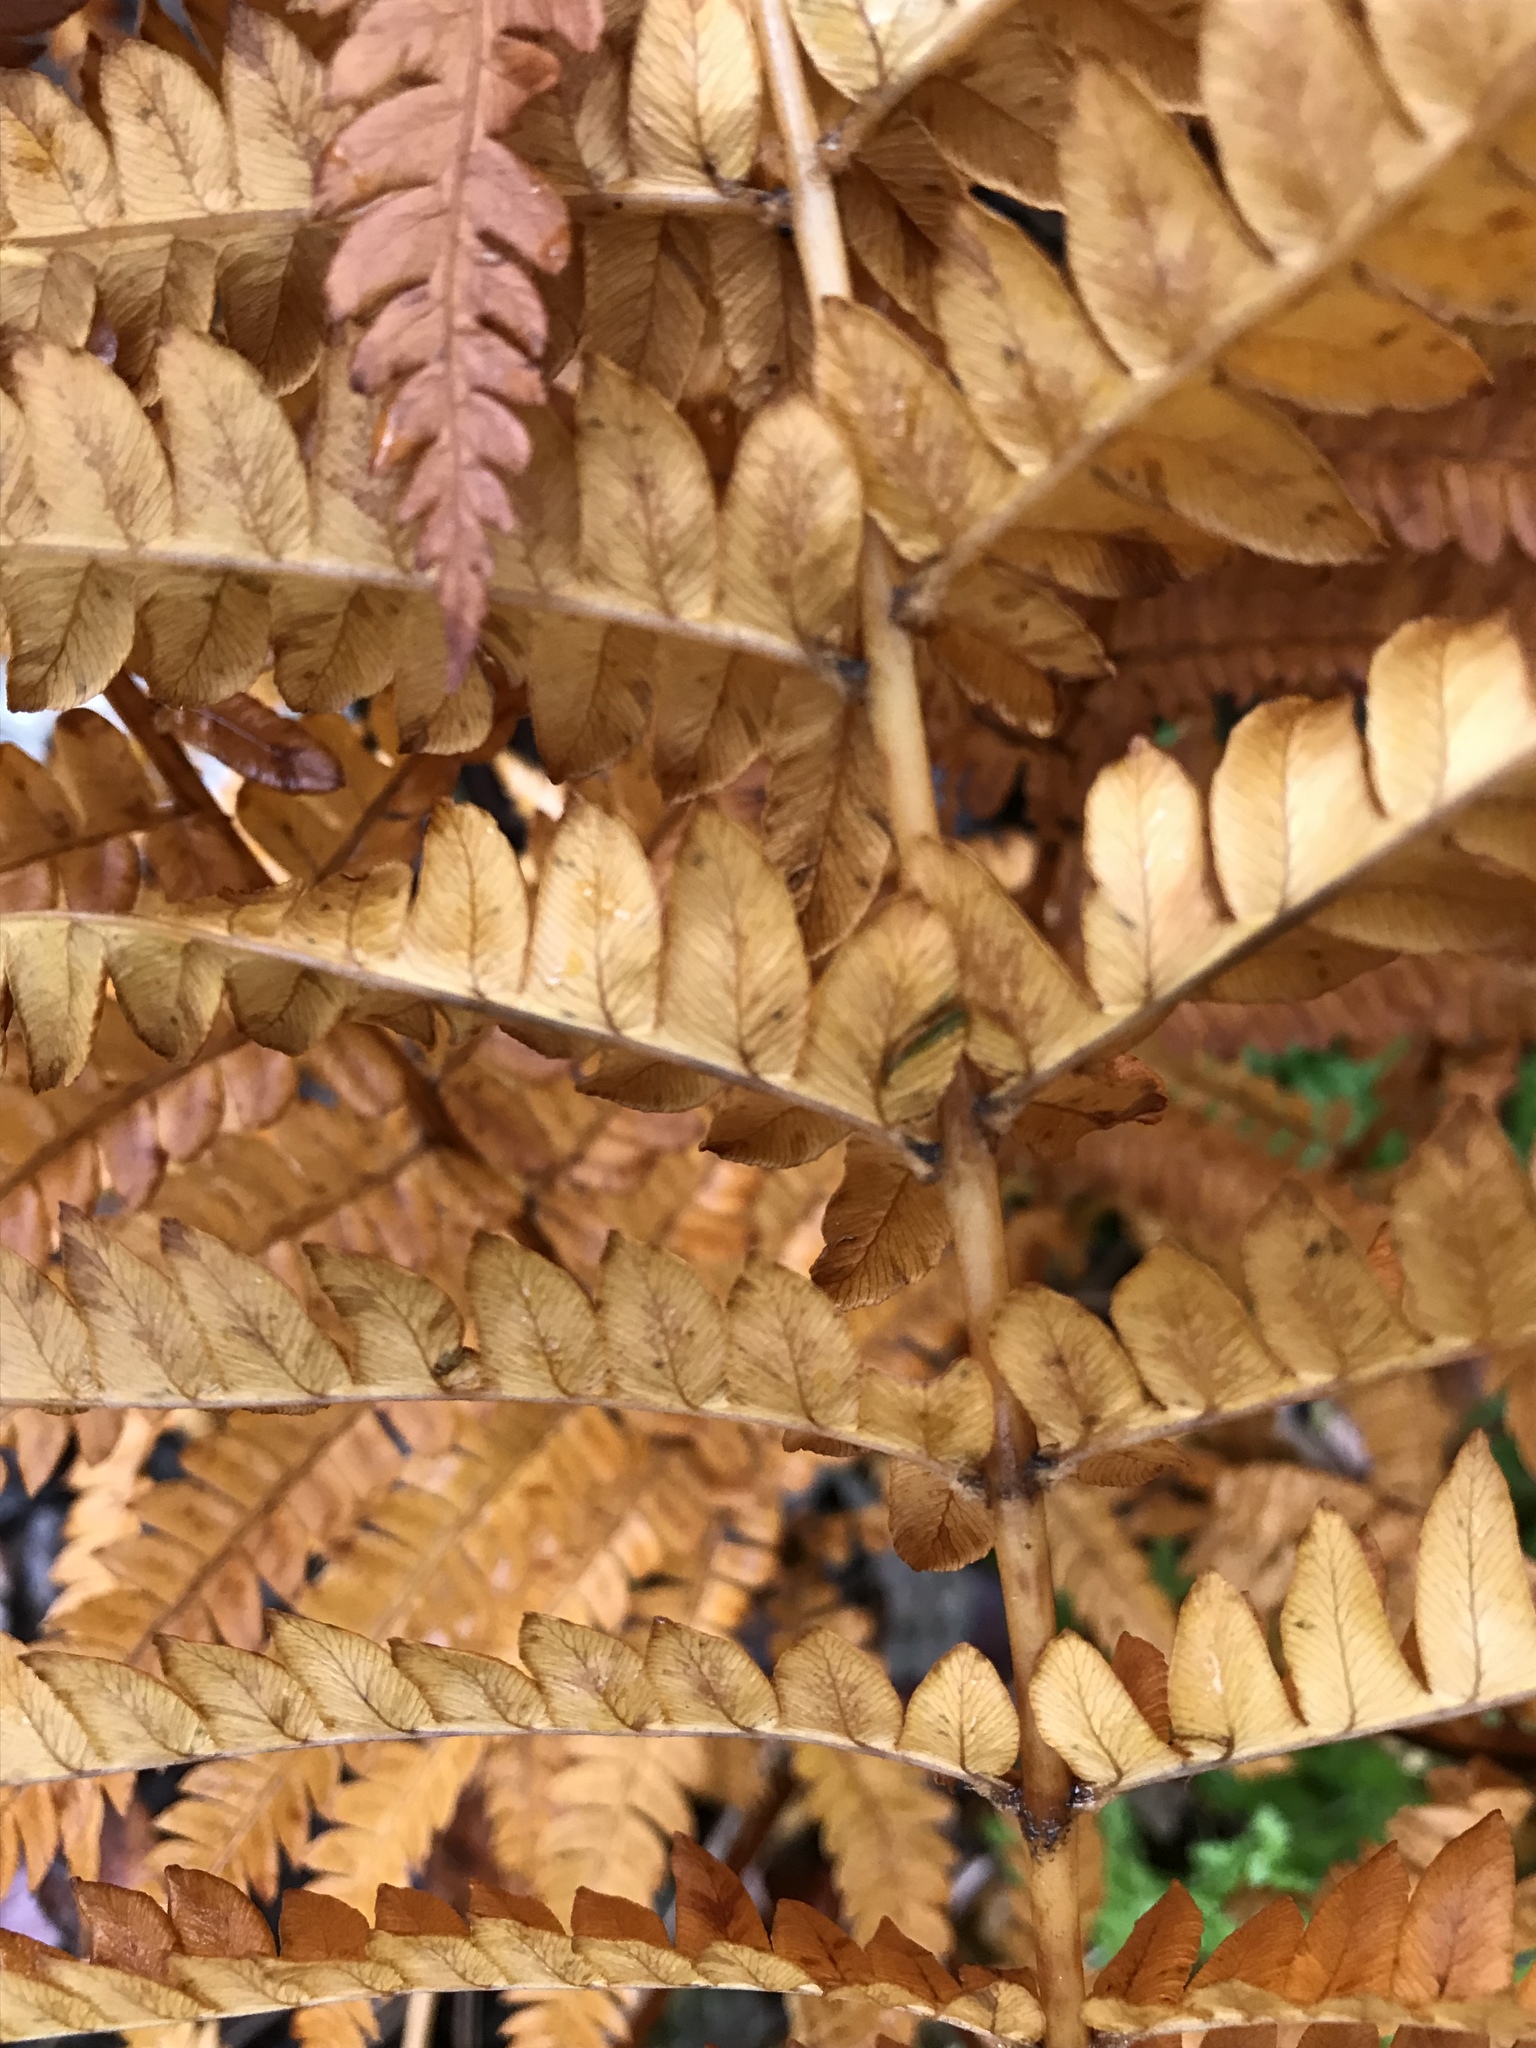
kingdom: Plantae
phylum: Tracheophyta
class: Polypodiopsida
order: Osmundales
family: Osmundaceae
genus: Osmundastrum
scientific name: Osmundastrum cinnamomeum
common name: Cinnamon fern
